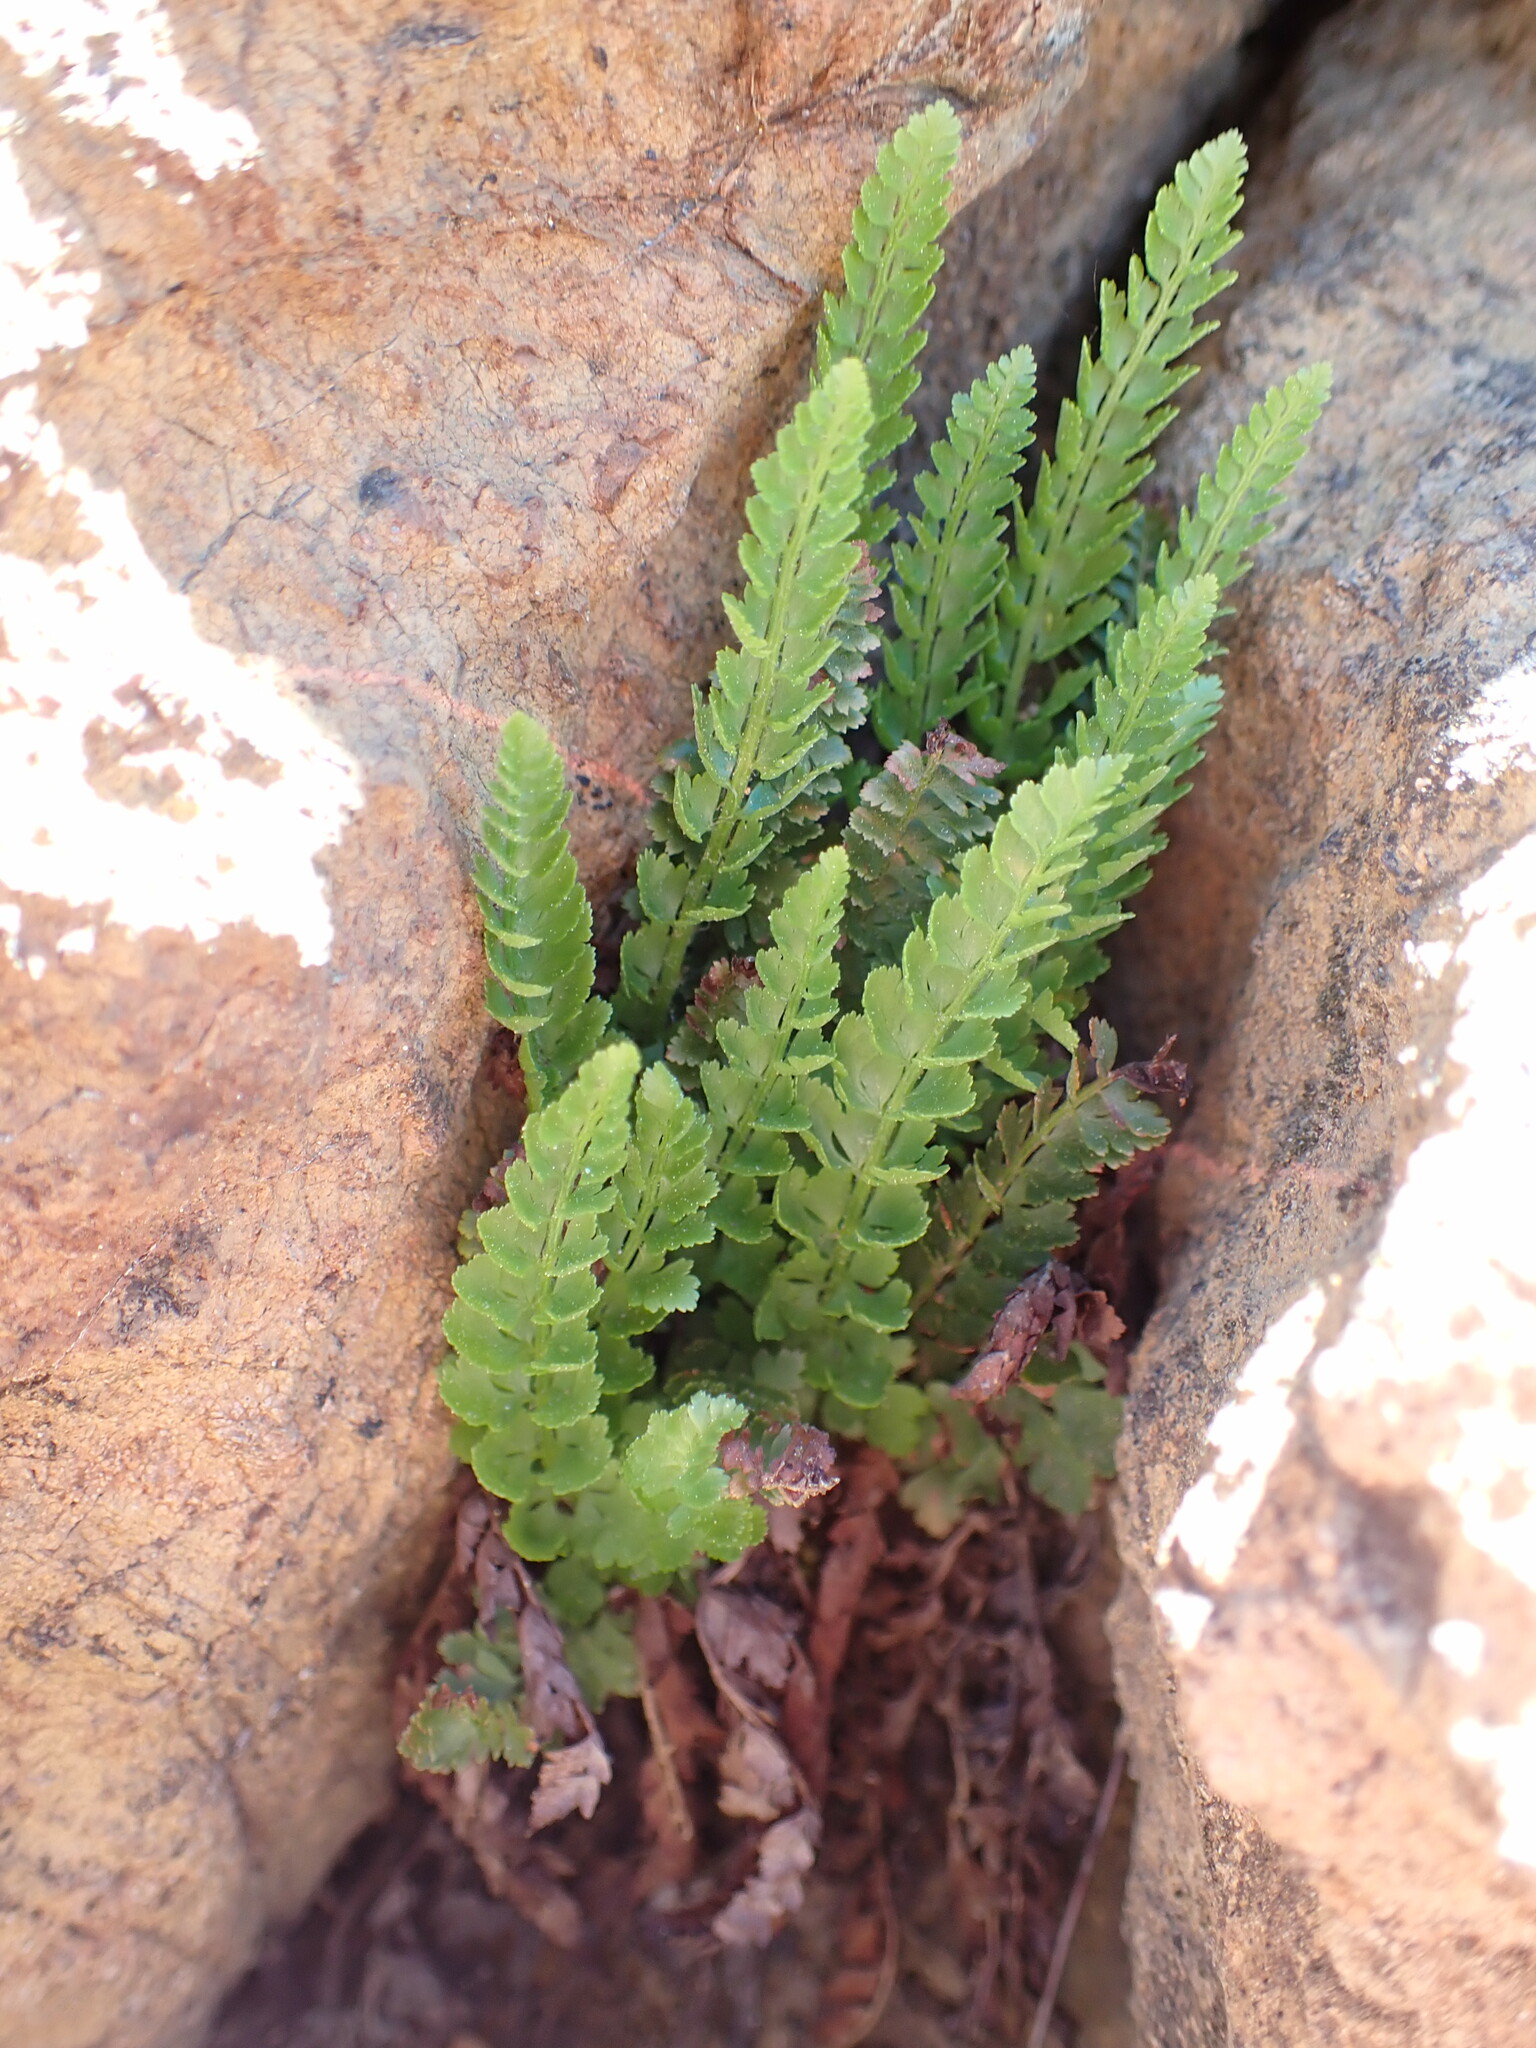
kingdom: Plantae
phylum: Tracheophyta
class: Polypodiopsida
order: Polypodiales
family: Dryopteridaceae
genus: Polystichum
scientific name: Polystichum lemmonii
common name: Lemmon's holly fern
